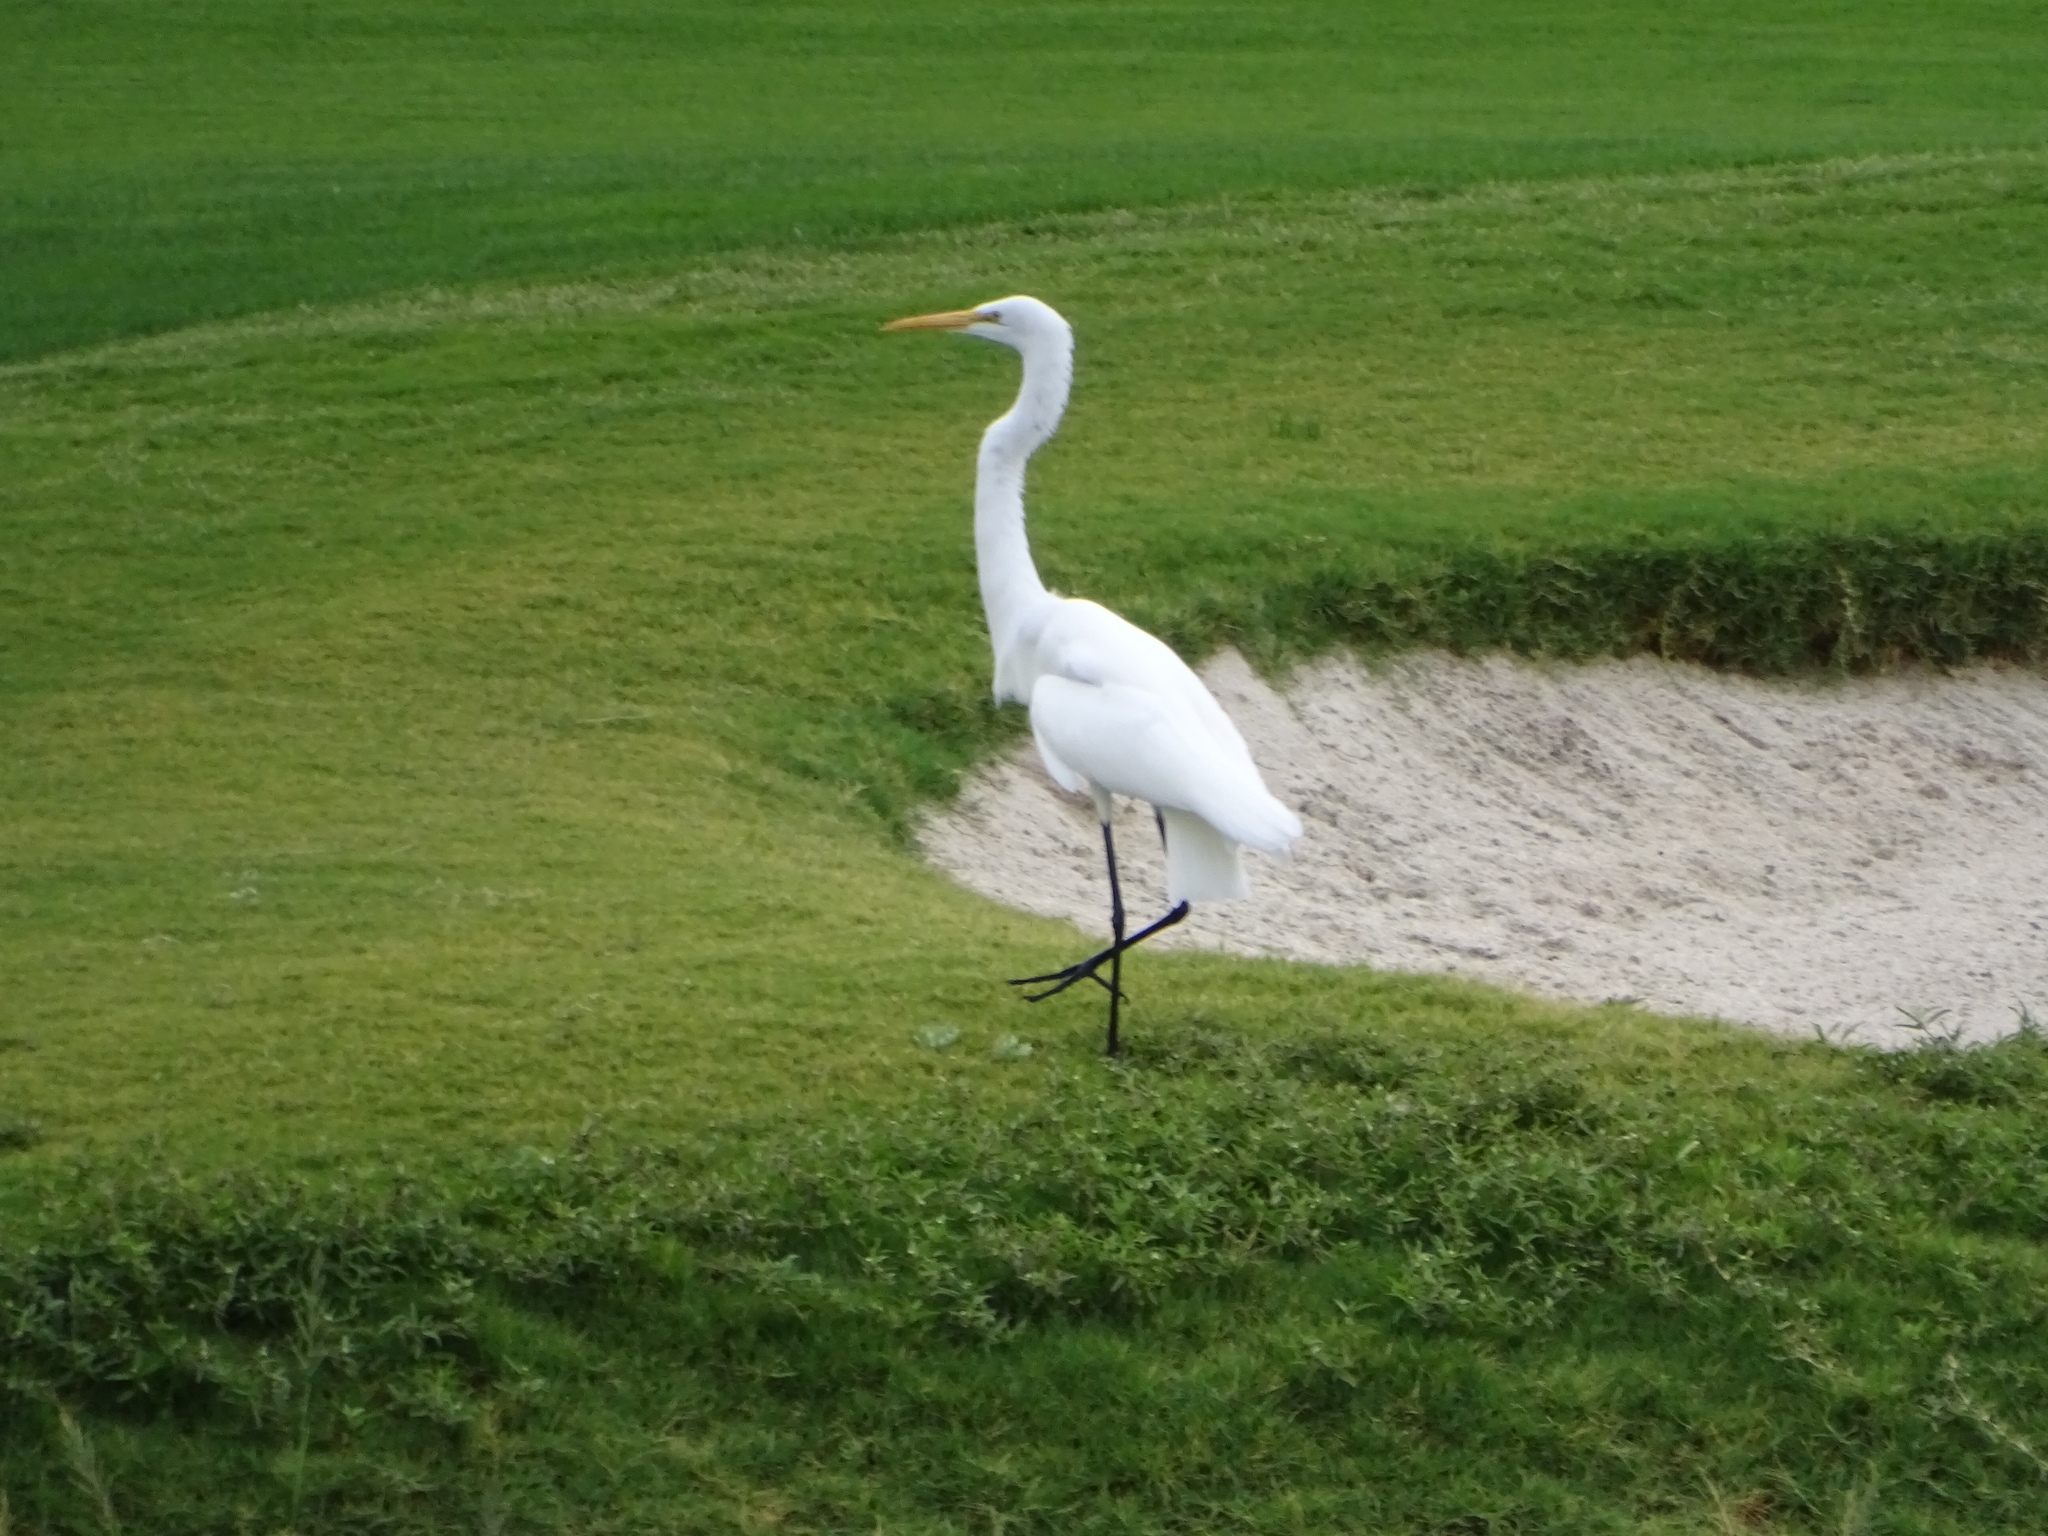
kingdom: Animalia
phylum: Chordata
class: Aves
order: Pelecaniformes
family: Ardeidae
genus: Ardea
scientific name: Ardea alba
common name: Great egret
